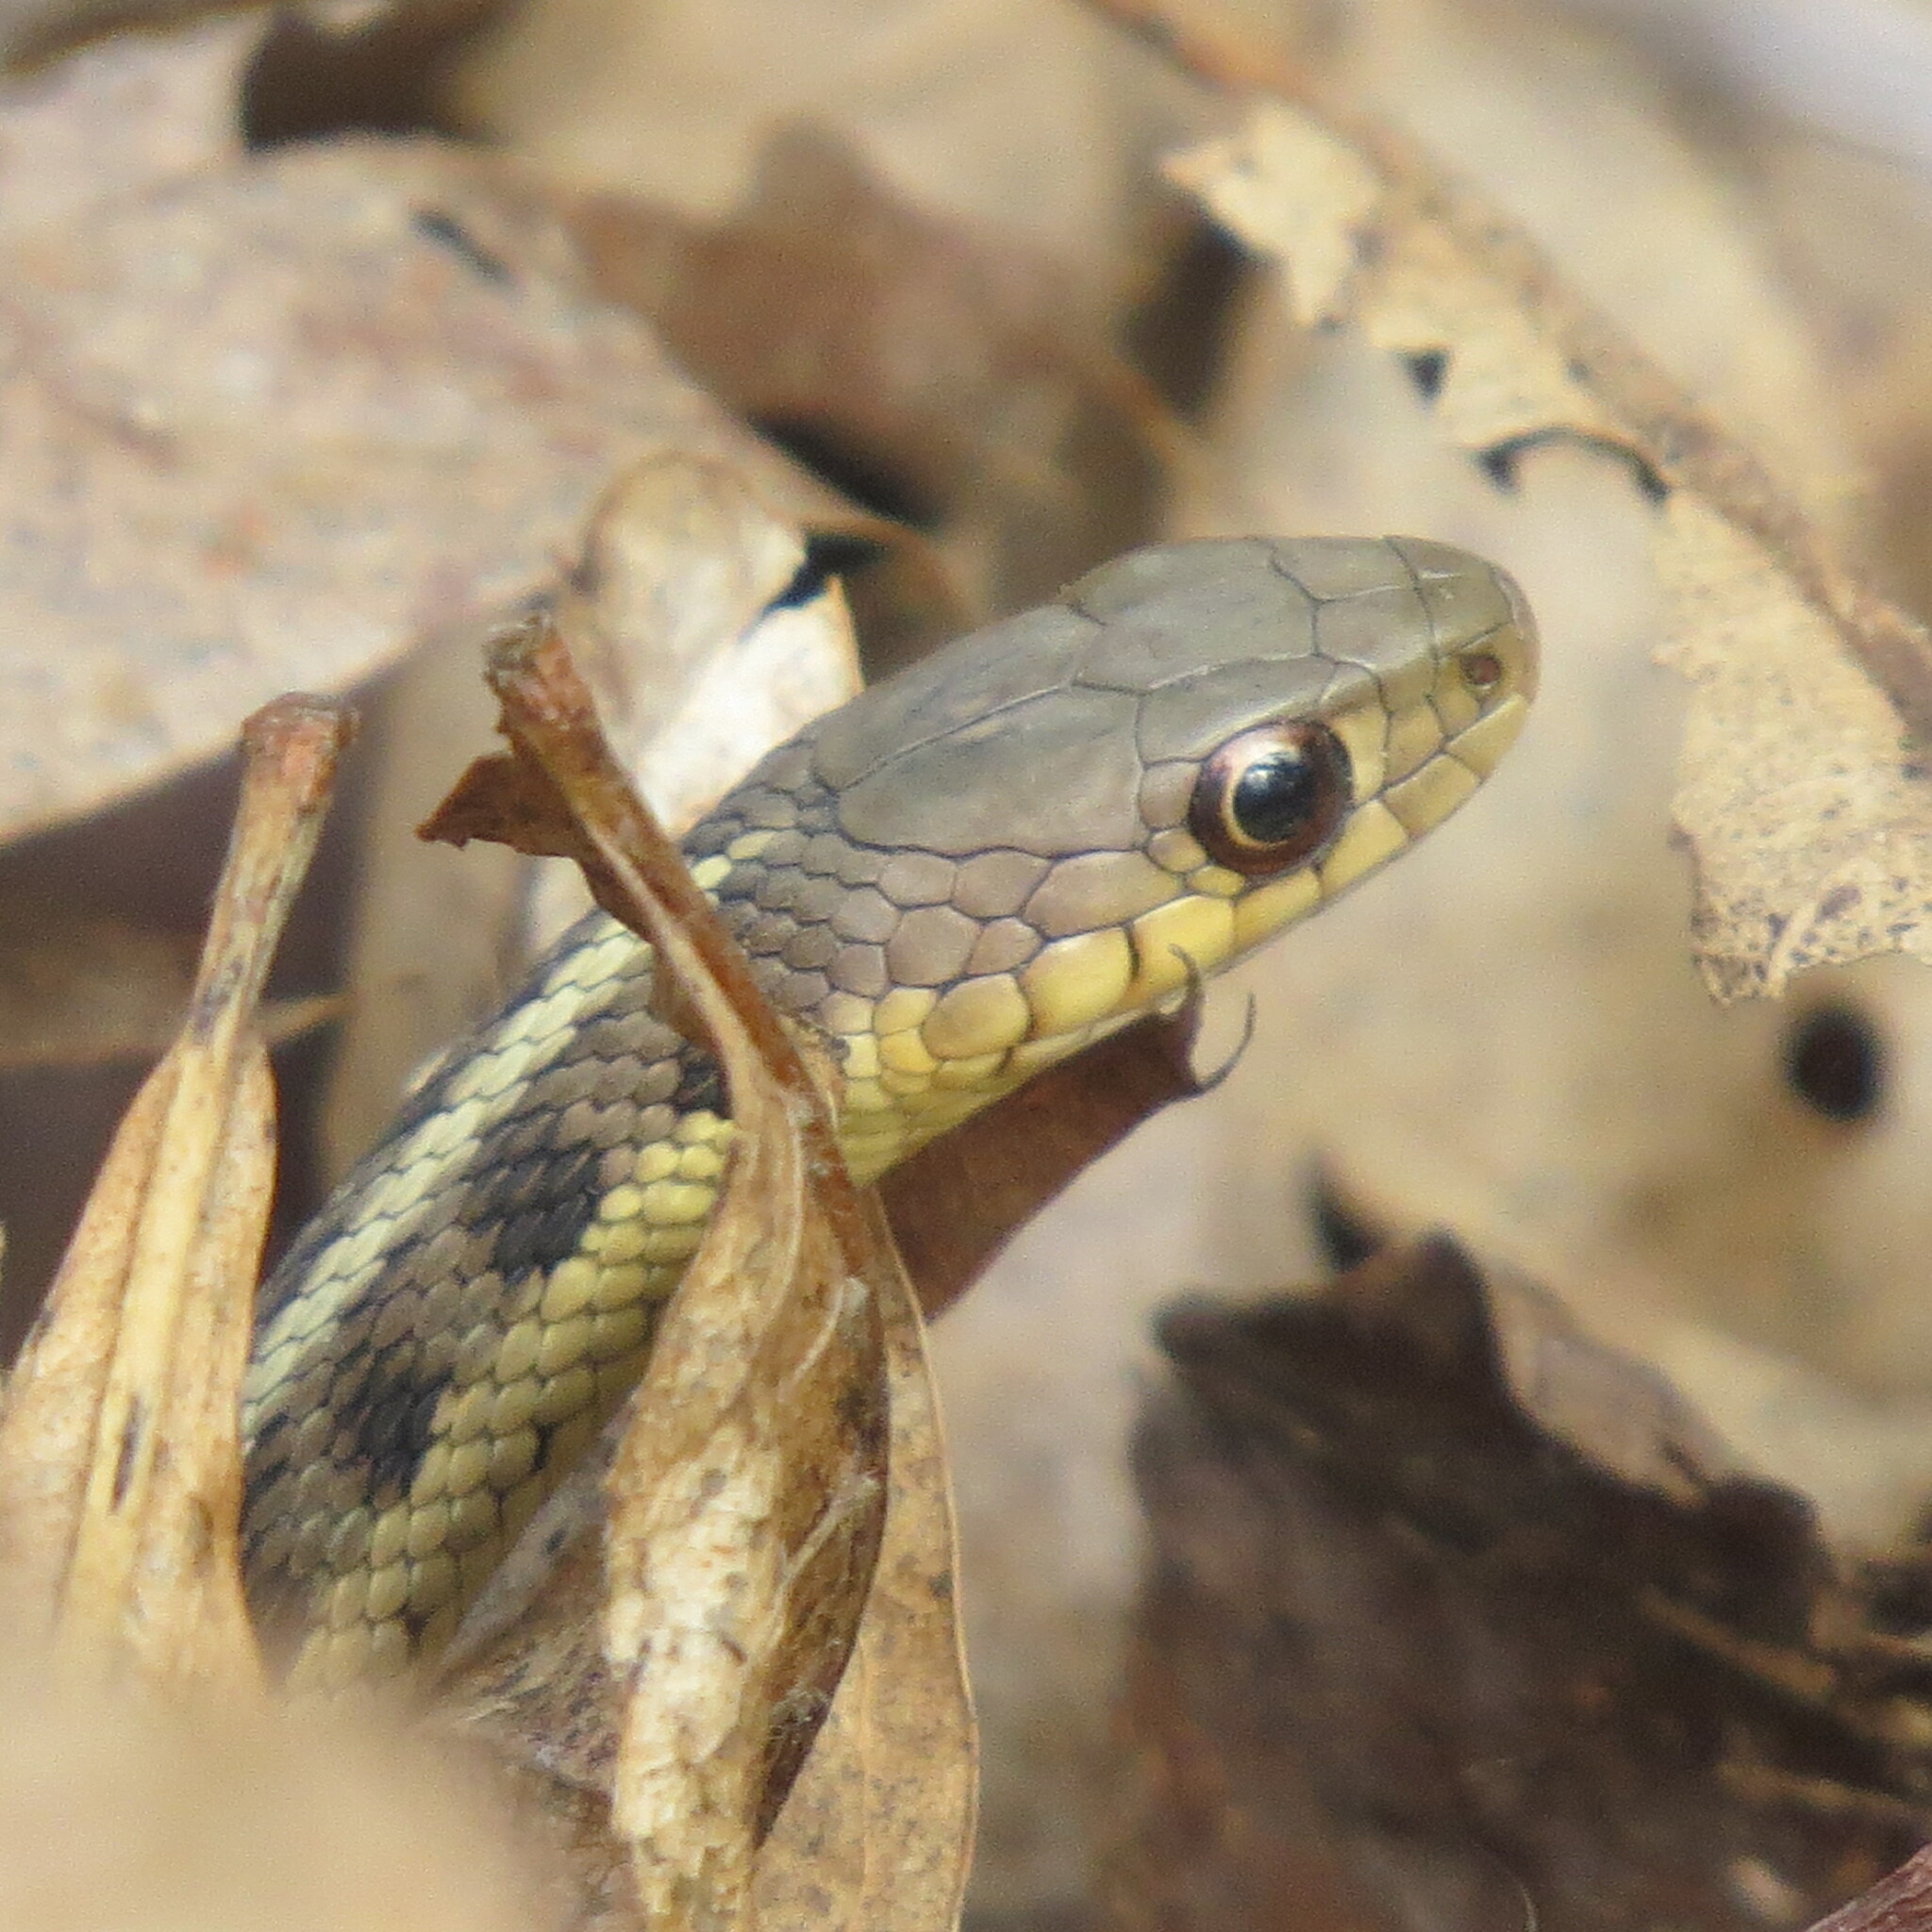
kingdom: Animalia
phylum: Chordata
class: Squamata
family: Colubridae
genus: Thamnophis
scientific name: Thamnophis sirtalis
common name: Common garter snake
